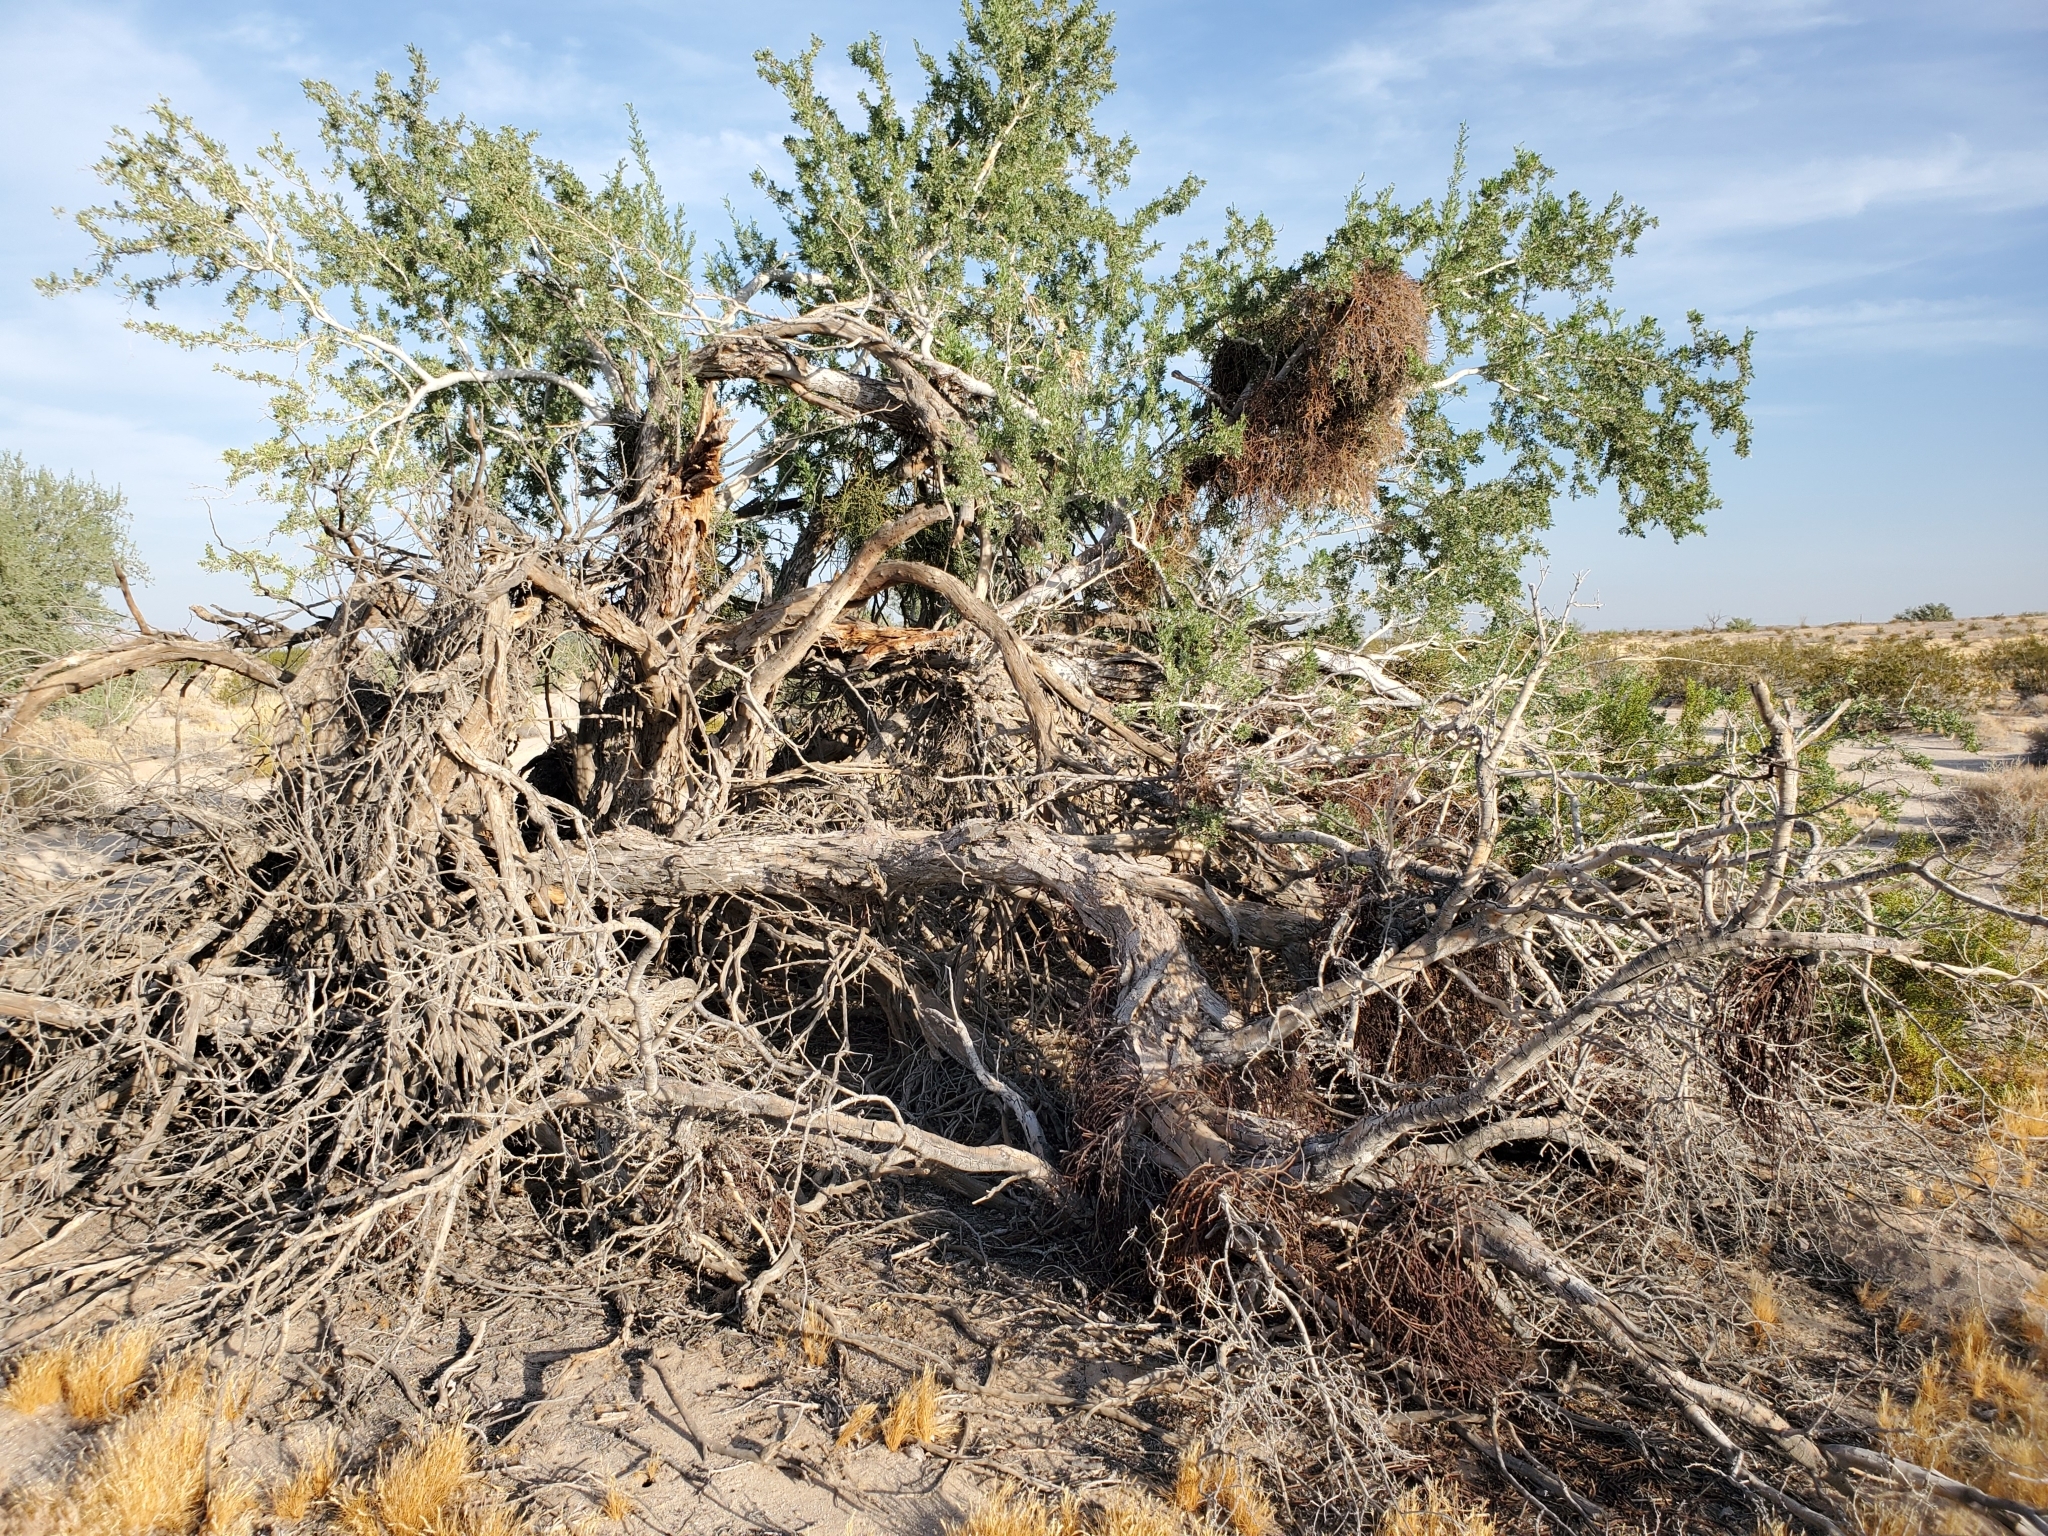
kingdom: Plantae
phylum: Tracheophyta
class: Magnoliopsida
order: Fabales
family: Fabaceae
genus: Olneya
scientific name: Olneya tesota
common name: Desert ironwood
